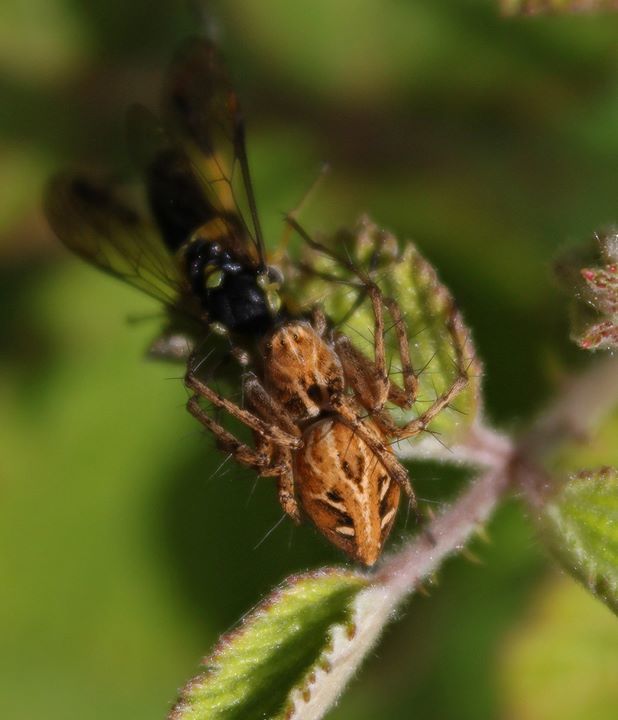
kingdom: Animalia
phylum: Arthropoda
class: Arachnida
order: Araneae
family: Oxyopidae
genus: Oxyopes
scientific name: Oxyopes heterophthalmus
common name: Lynx spider
